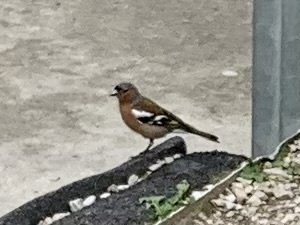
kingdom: Animalia
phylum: Chordata
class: Aves
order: Passeriformes
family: Fringillidae
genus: Fringilla
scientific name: Fringilla coelebs
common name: Common chaffinch
